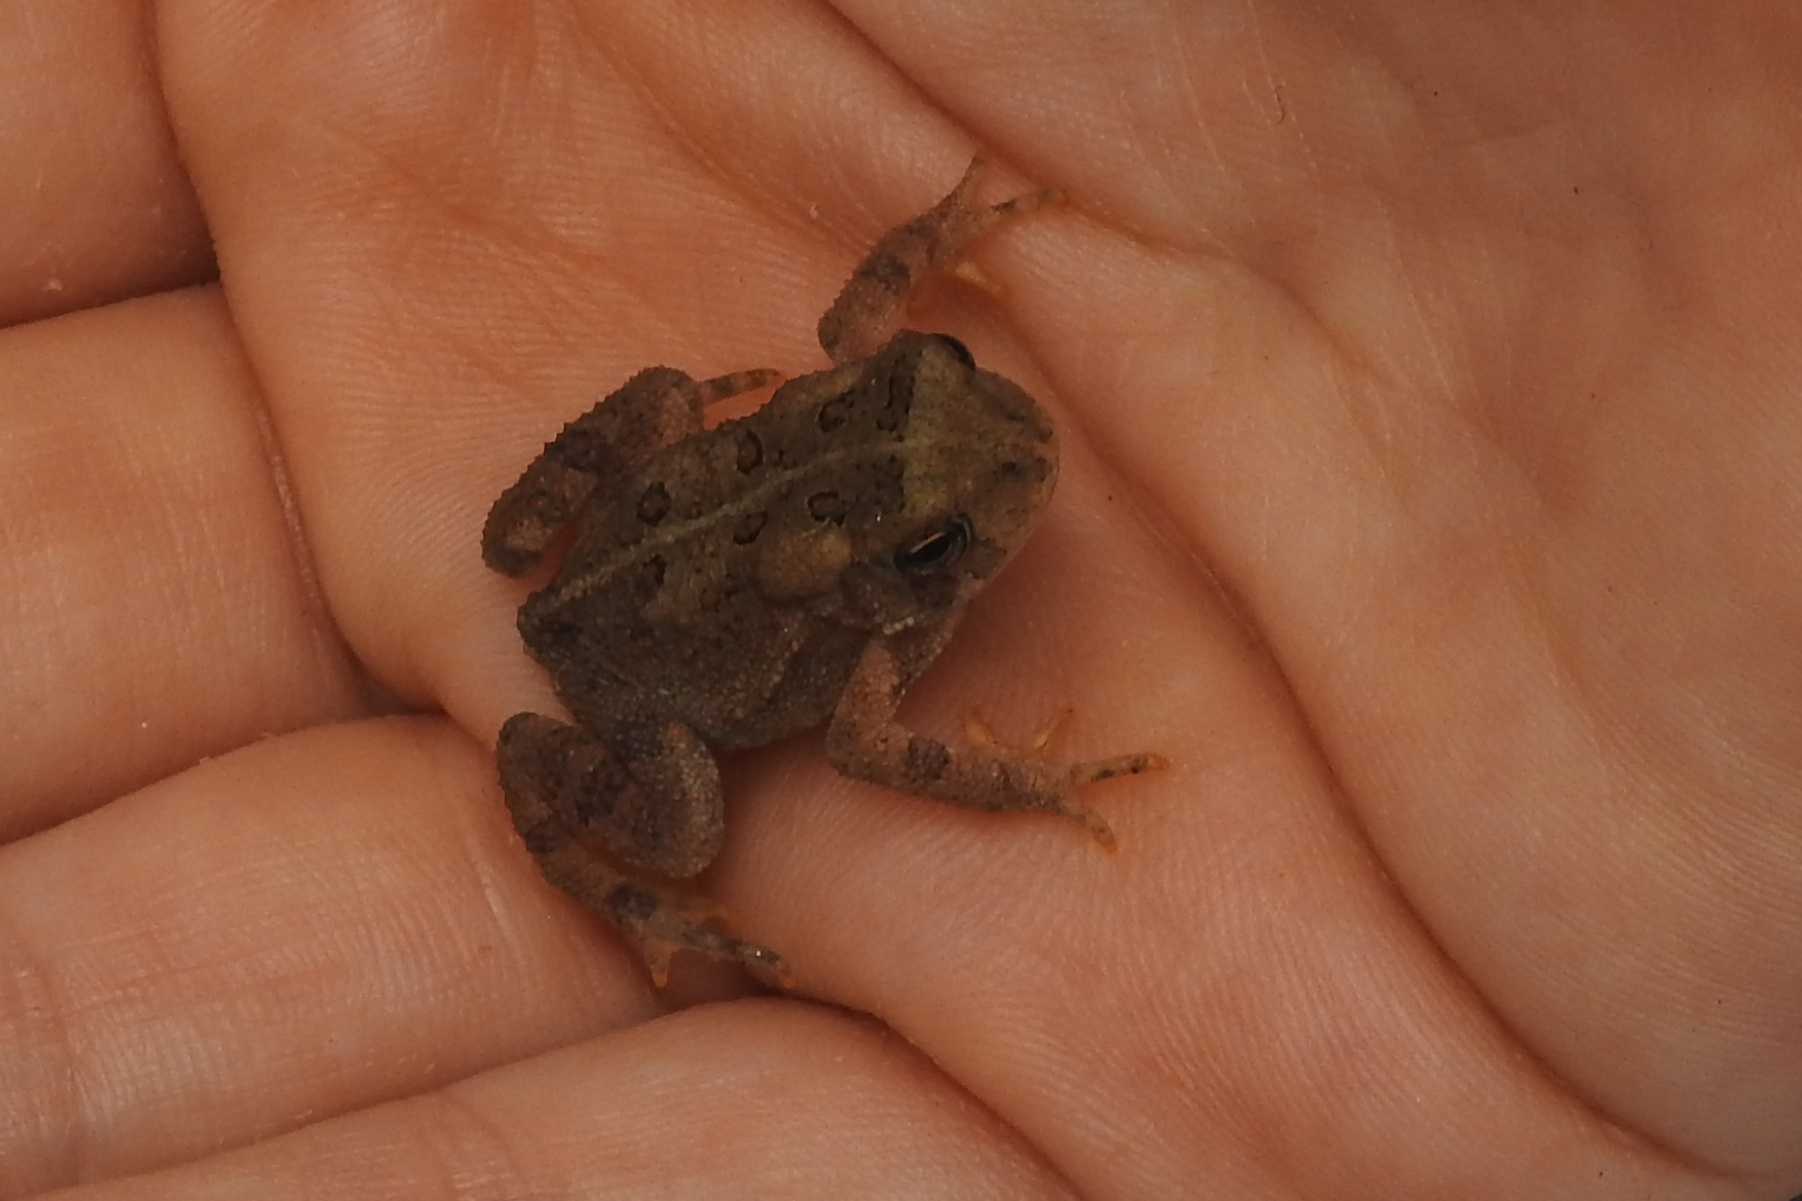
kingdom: Animalia
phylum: Chordata
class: Amphibia
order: Anura
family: Bufonidae
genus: Anaxyrus
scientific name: Anaxyrus americanus
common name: American toad
